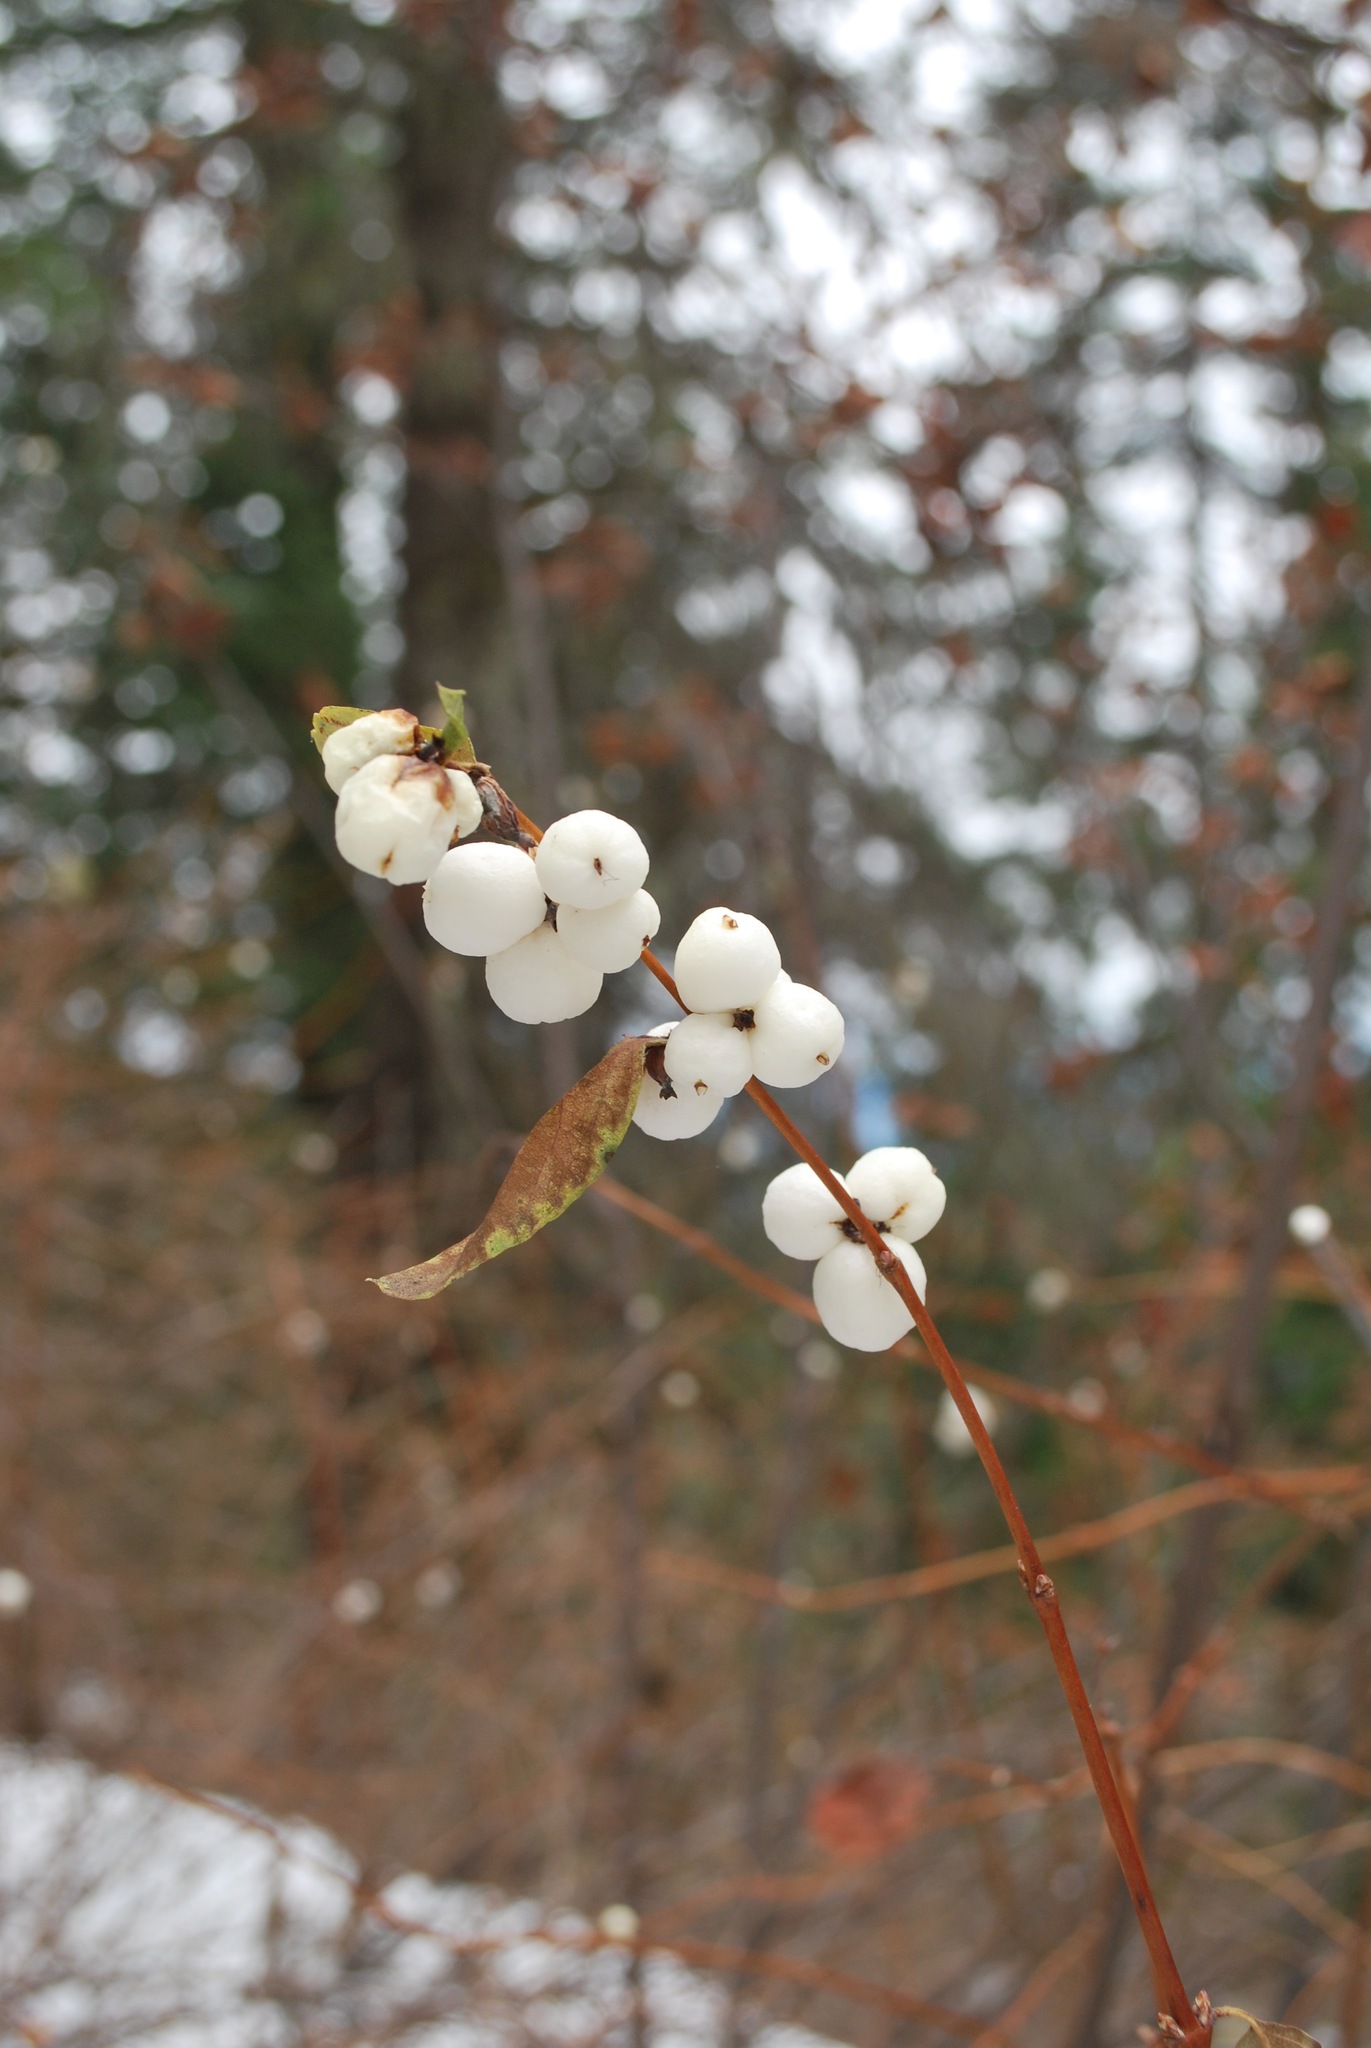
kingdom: Plantae
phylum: Tracheophyta
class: Magnoliopsida
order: Dipsacales
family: Caprifoliaceae
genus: Symphoricarpos
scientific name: Symphoricarpos albus
